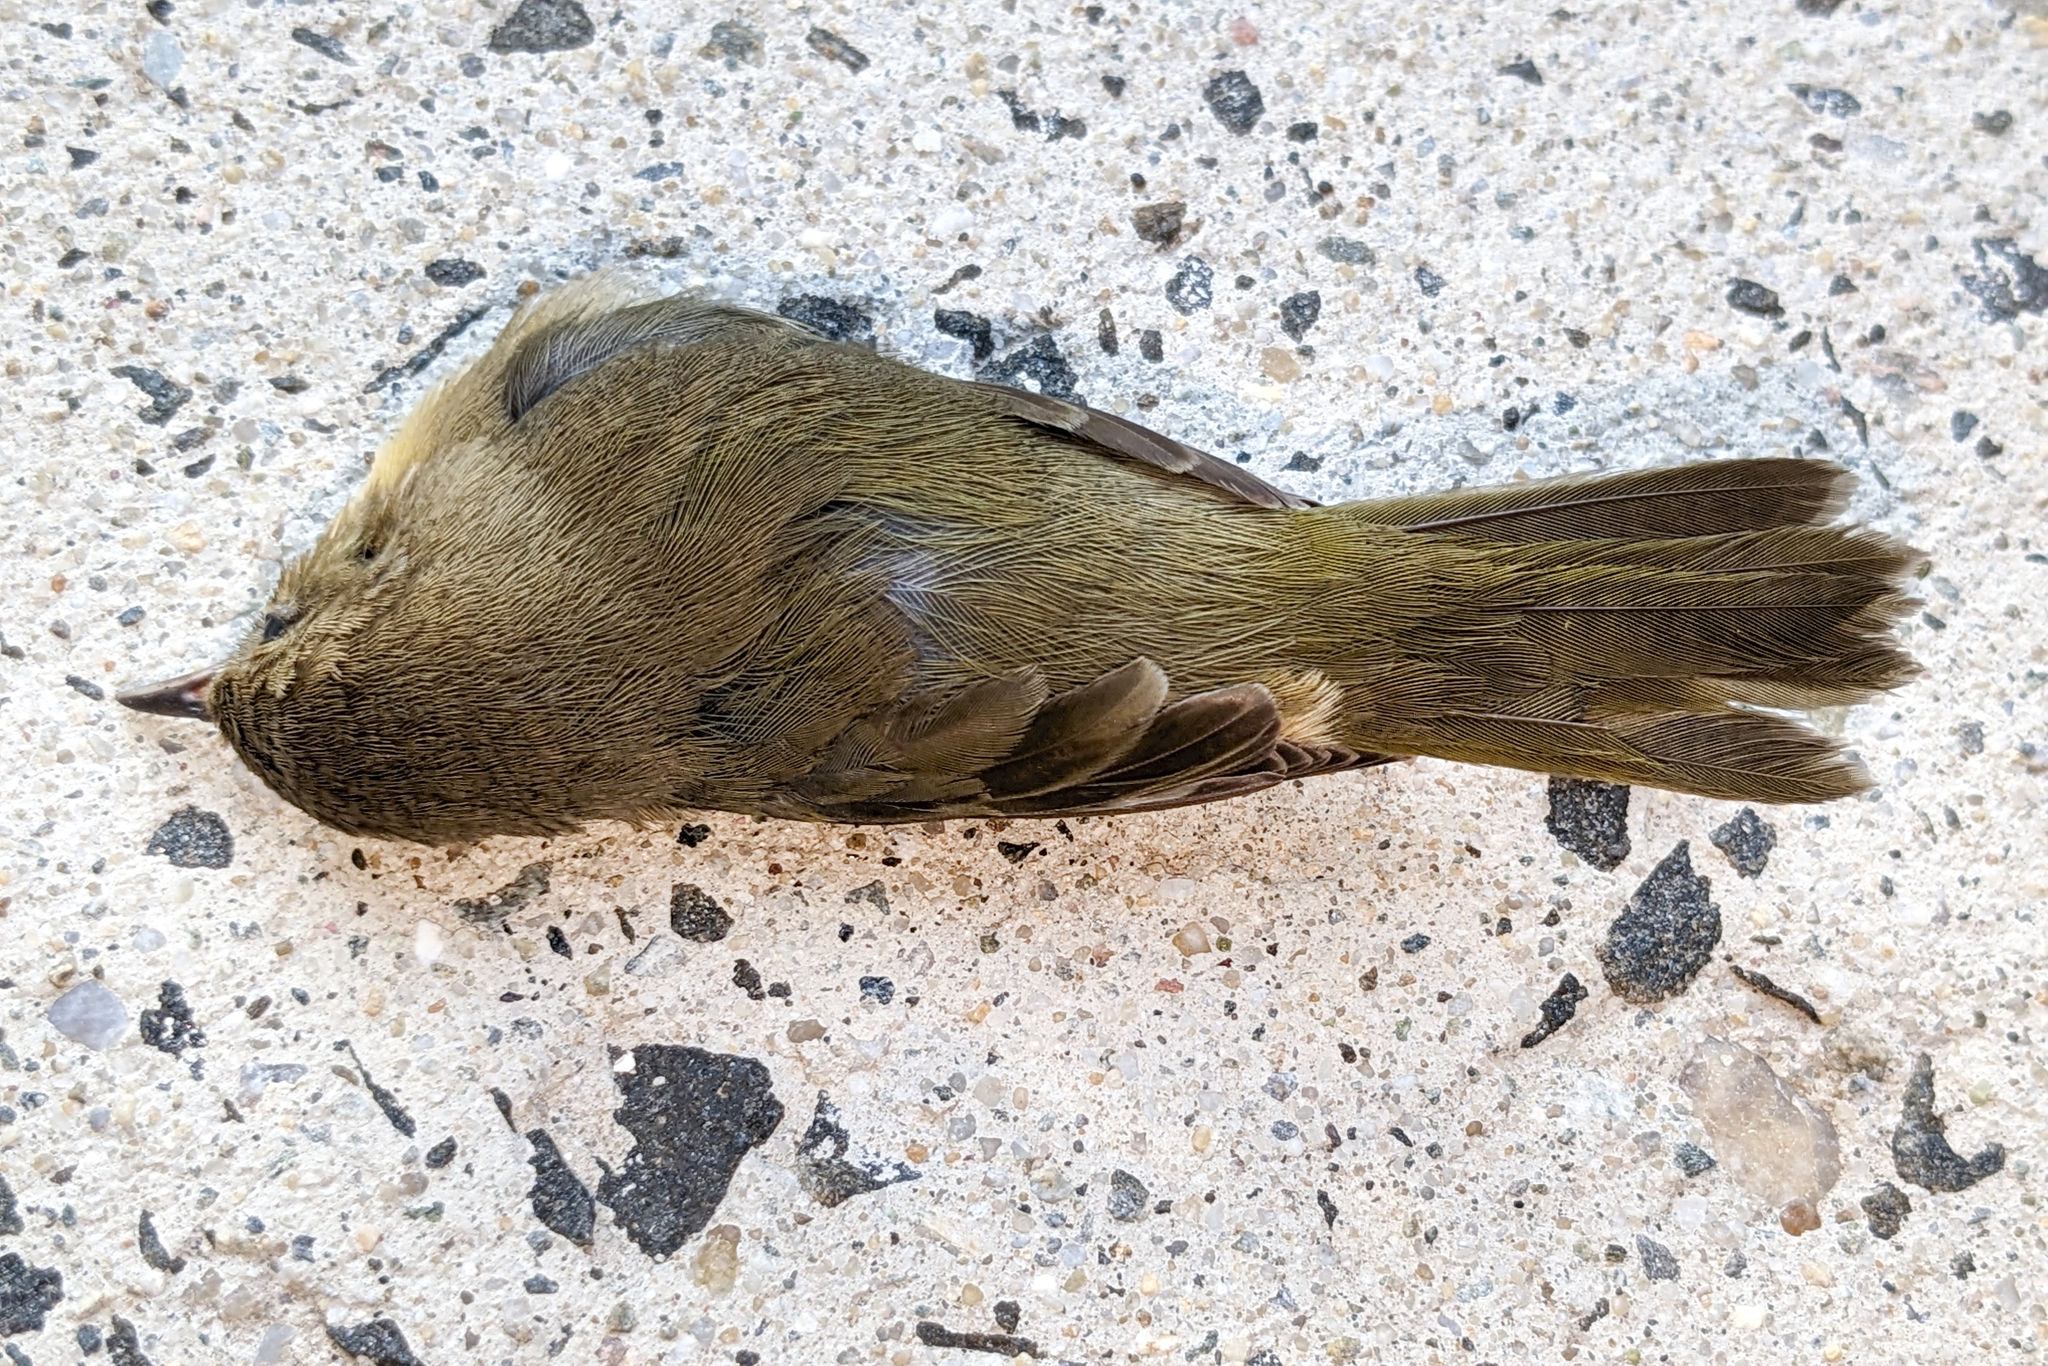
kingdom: Animalia
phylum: Chordata
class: Aves
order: Passeriformes
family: Parulidae
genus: Geothlypis
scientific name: Geothlypis trichas
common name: Common yellowthroat
